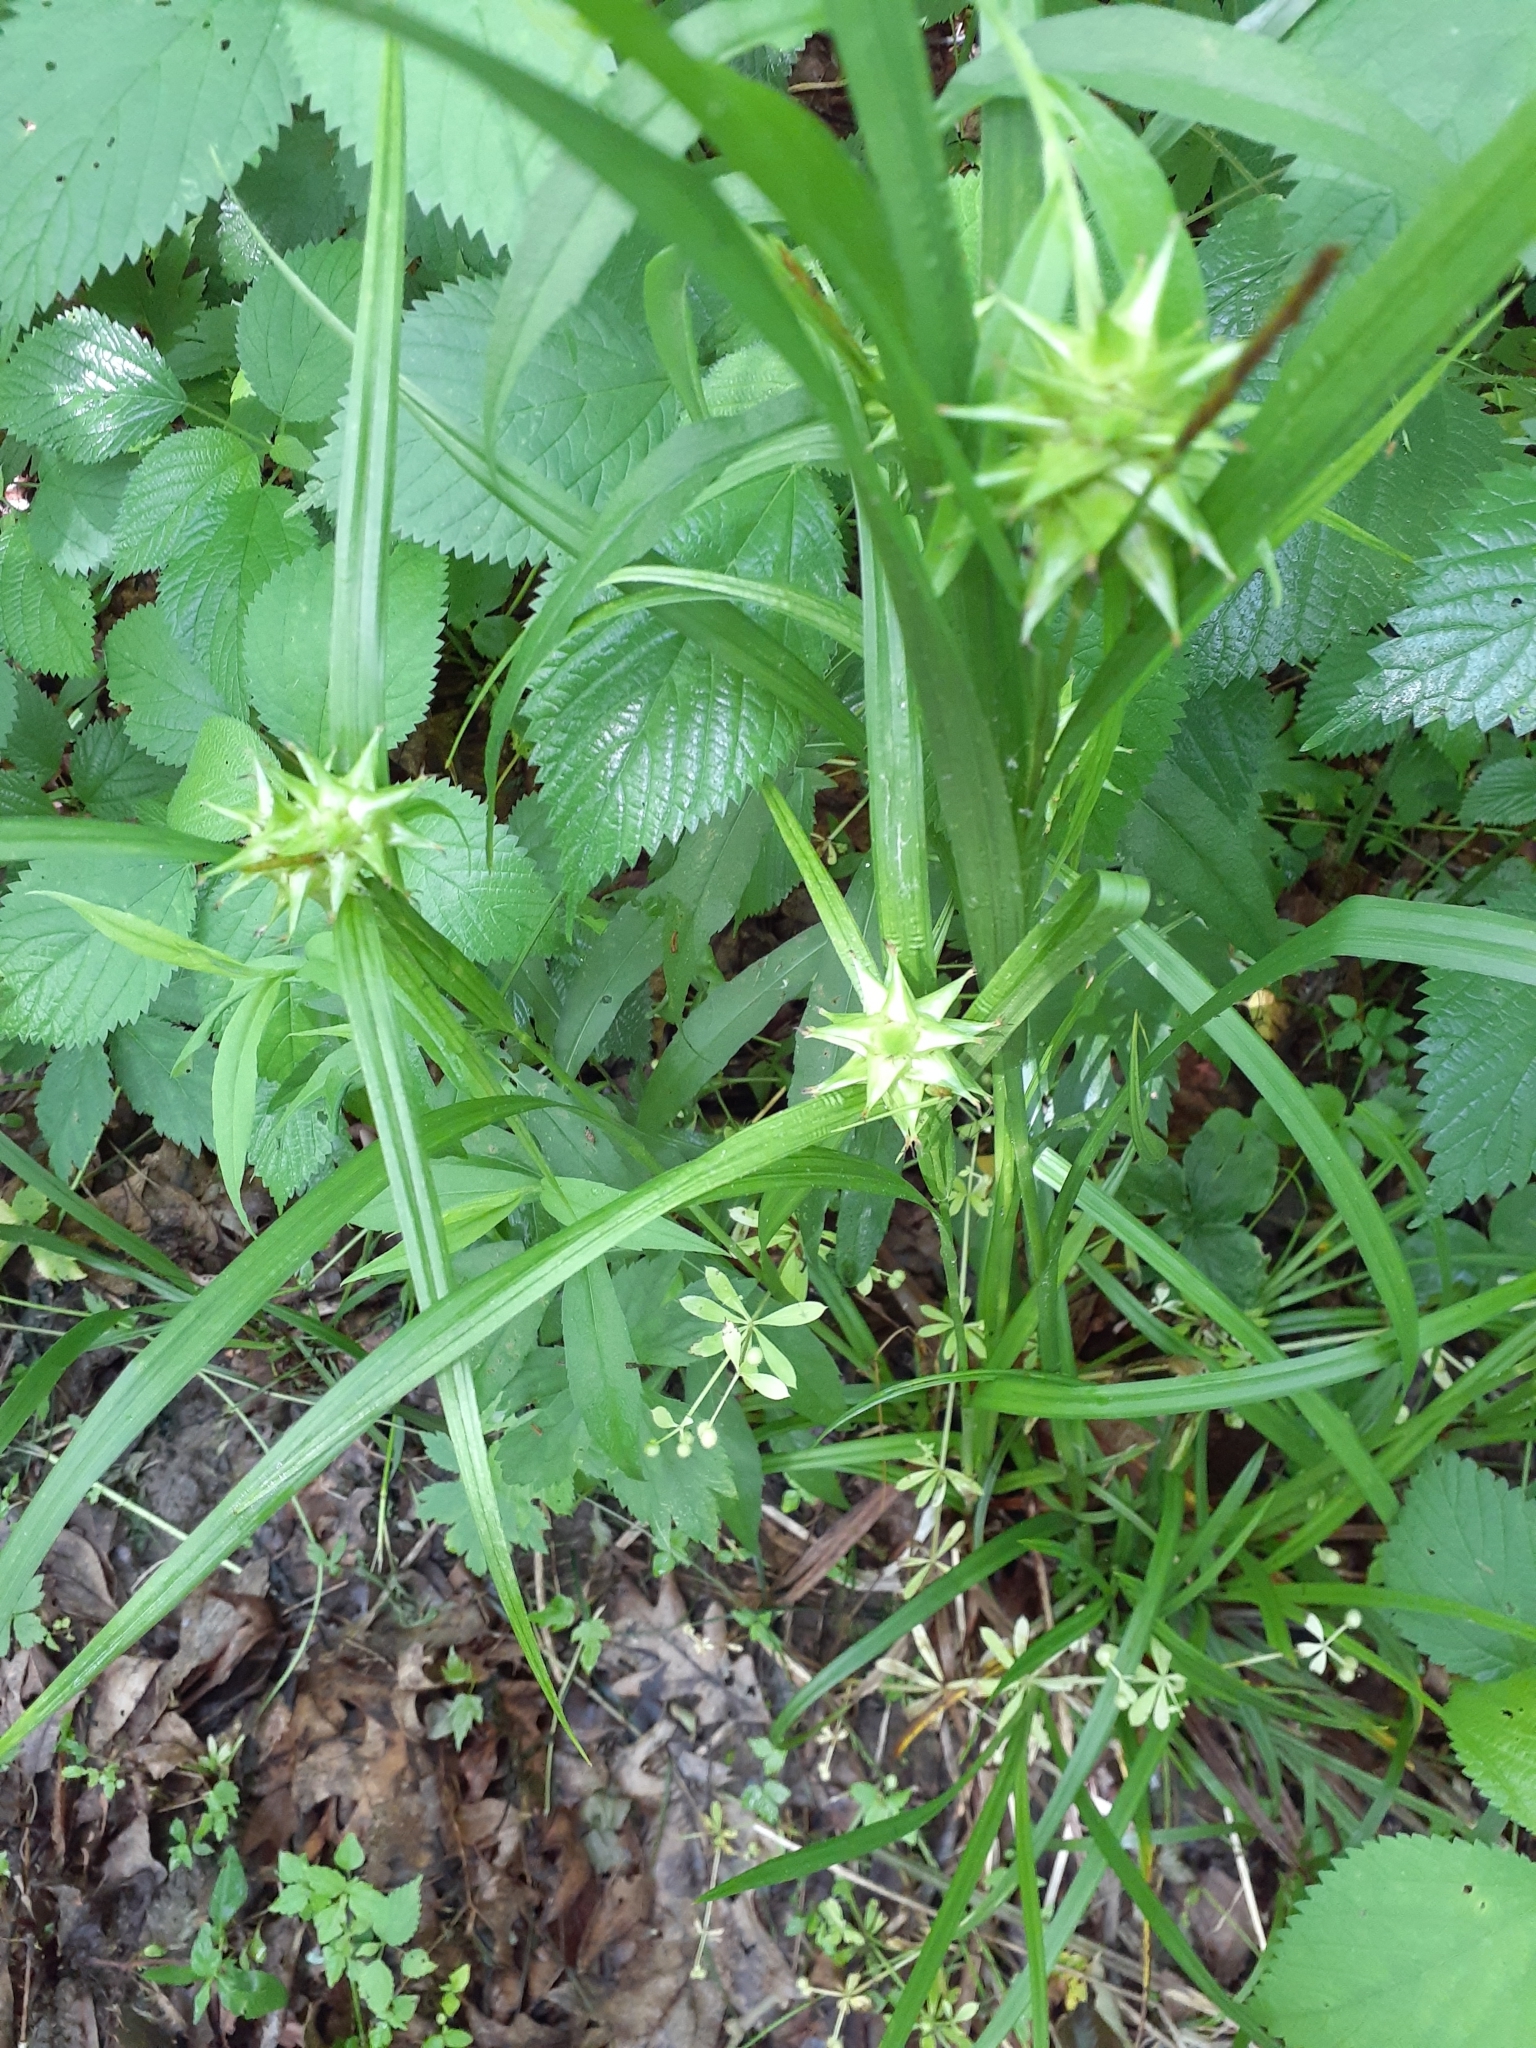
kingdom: Plantae
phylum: Tracheophyta
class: Liliopsida
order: Poales
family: Cyperaceae
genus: Carex
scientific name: Carex grayi
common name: Asa gray's sedge
